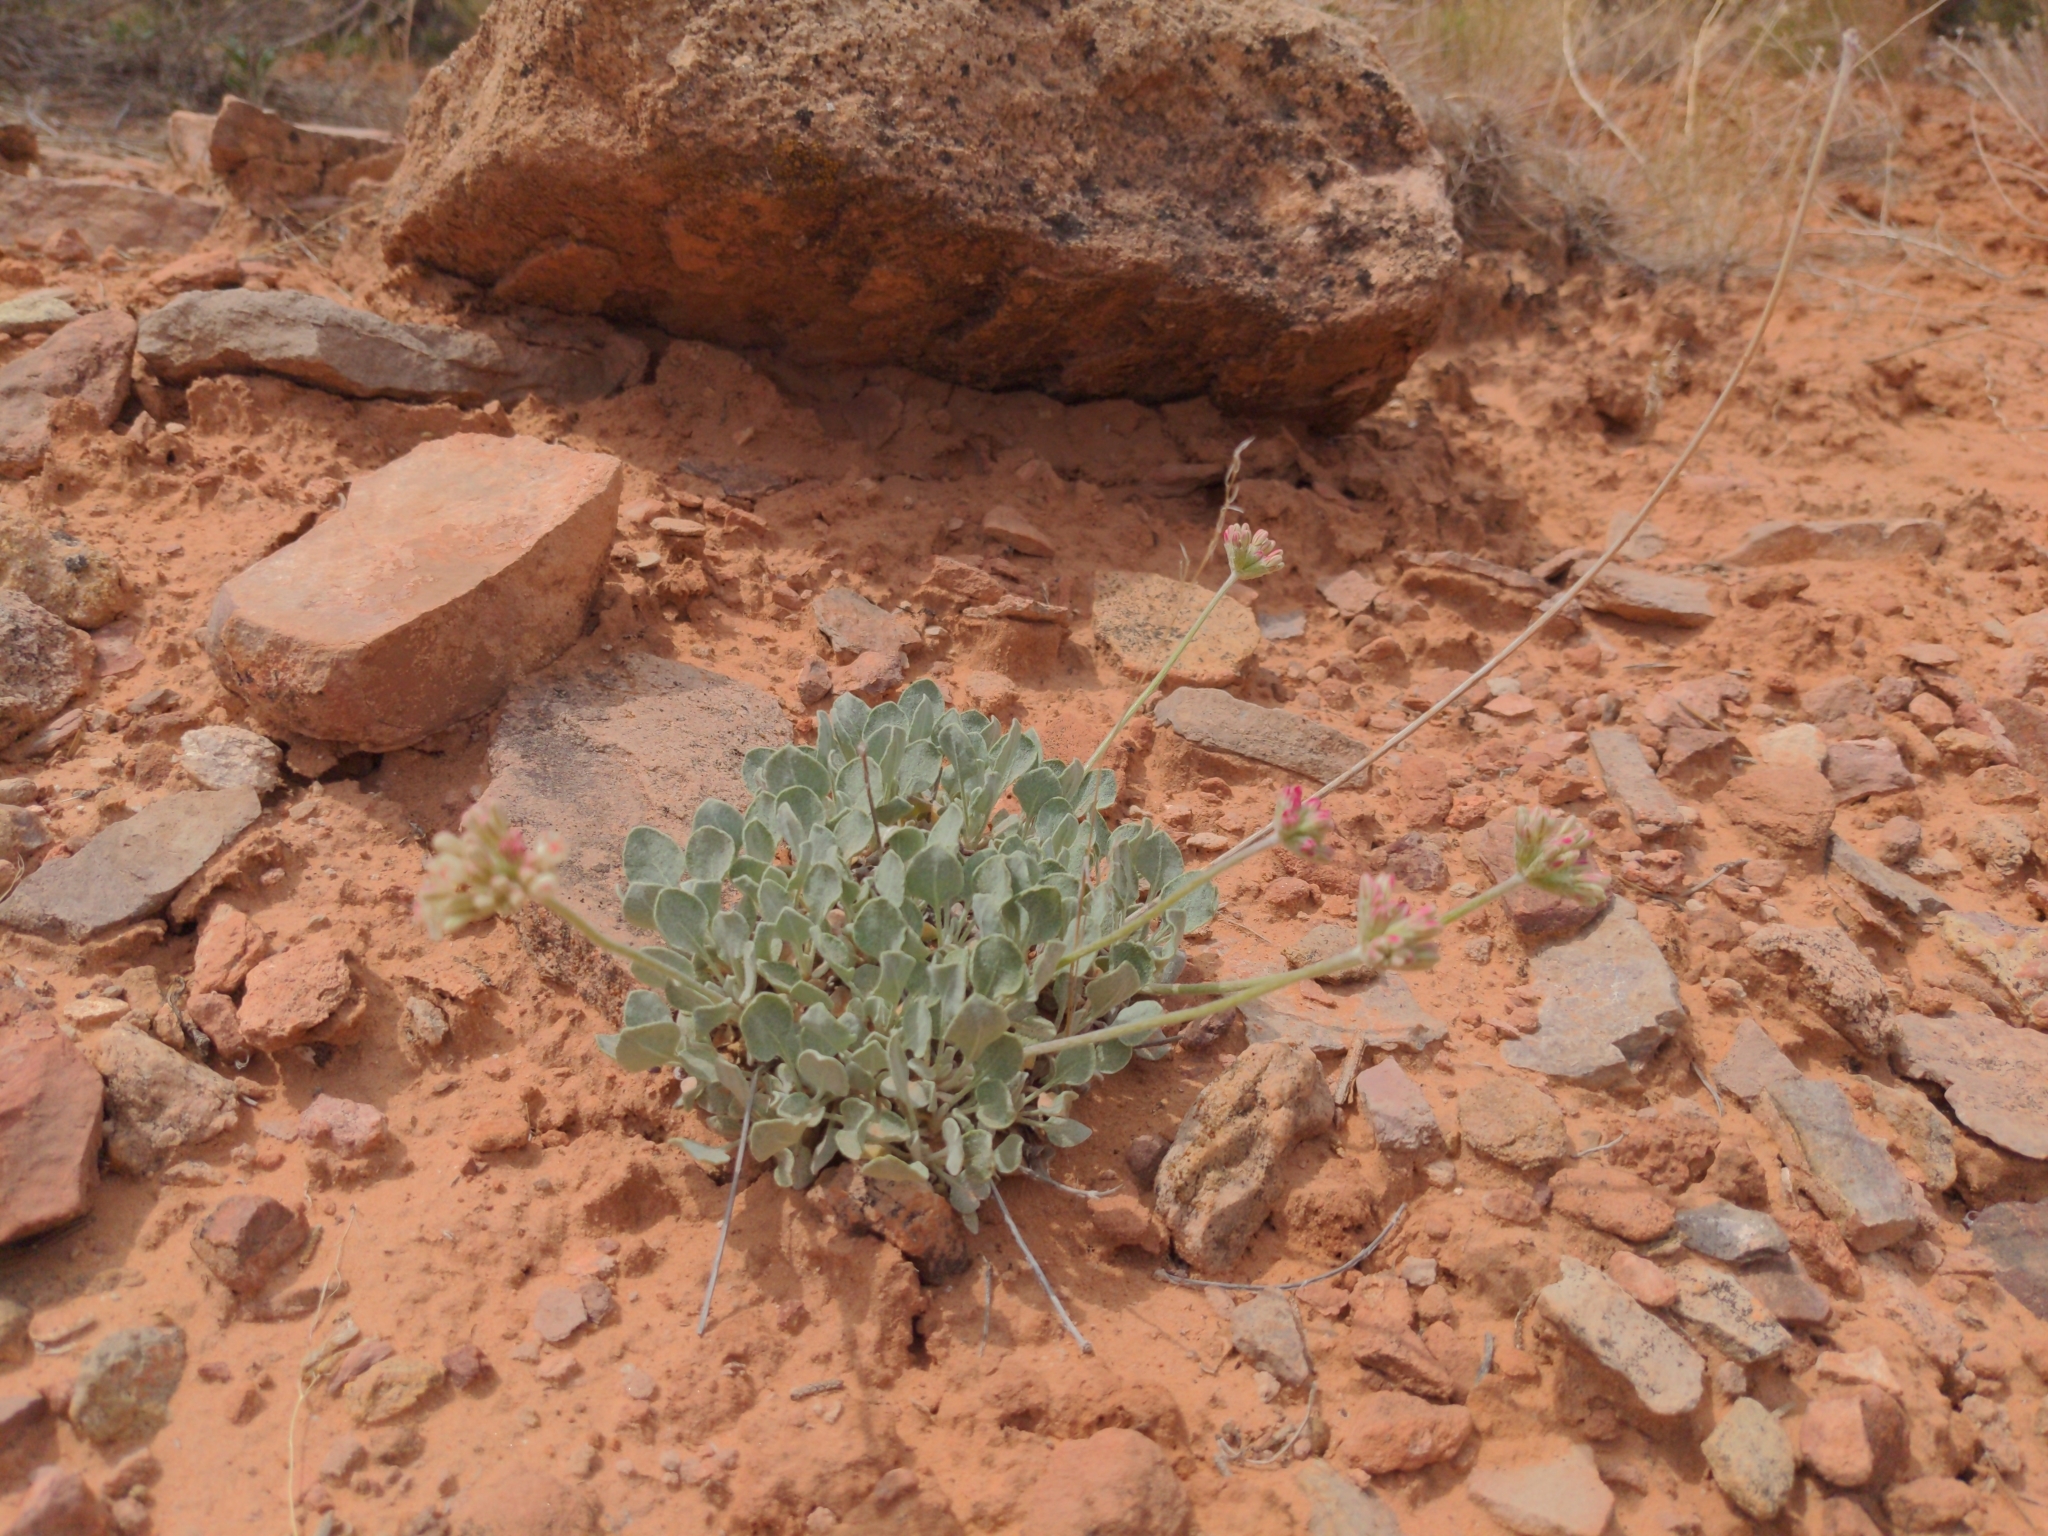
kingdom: Plantae
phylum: Tracheophyta
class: Magnoliopsida
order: Caryophyllales
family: Polygonaceae
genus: Eriogonum
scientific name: Eriogonum ovalifolium
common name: Cushion buckwheat
